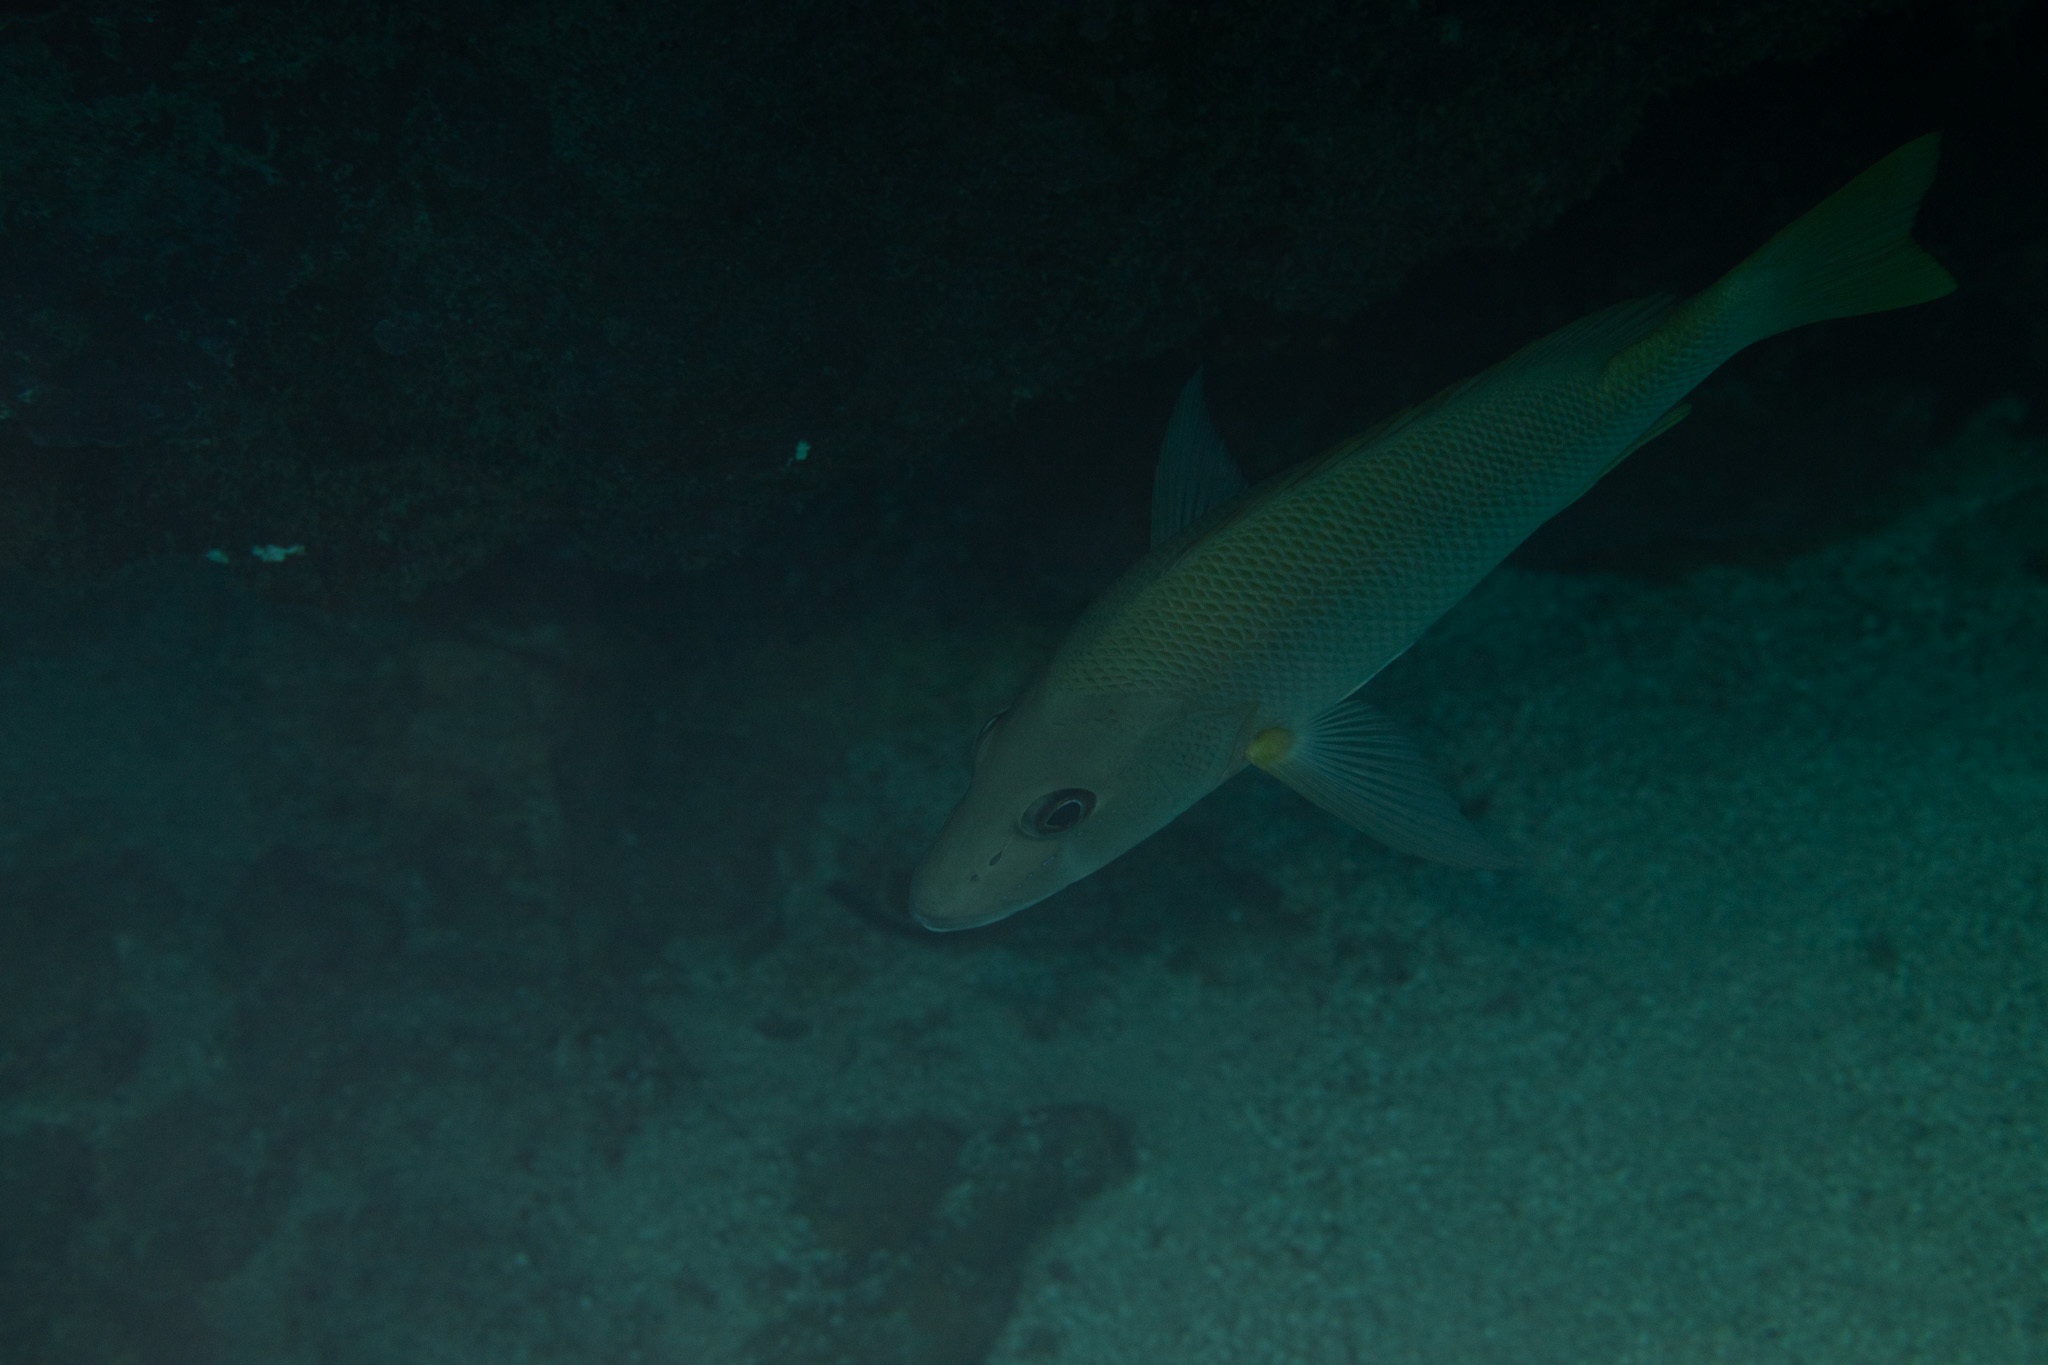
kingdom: Animalia
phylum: Chordata
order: Perciformes
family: Lutjanidae
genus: Lutjanus
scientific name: Lutjanus jocu
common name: Dog snapper
